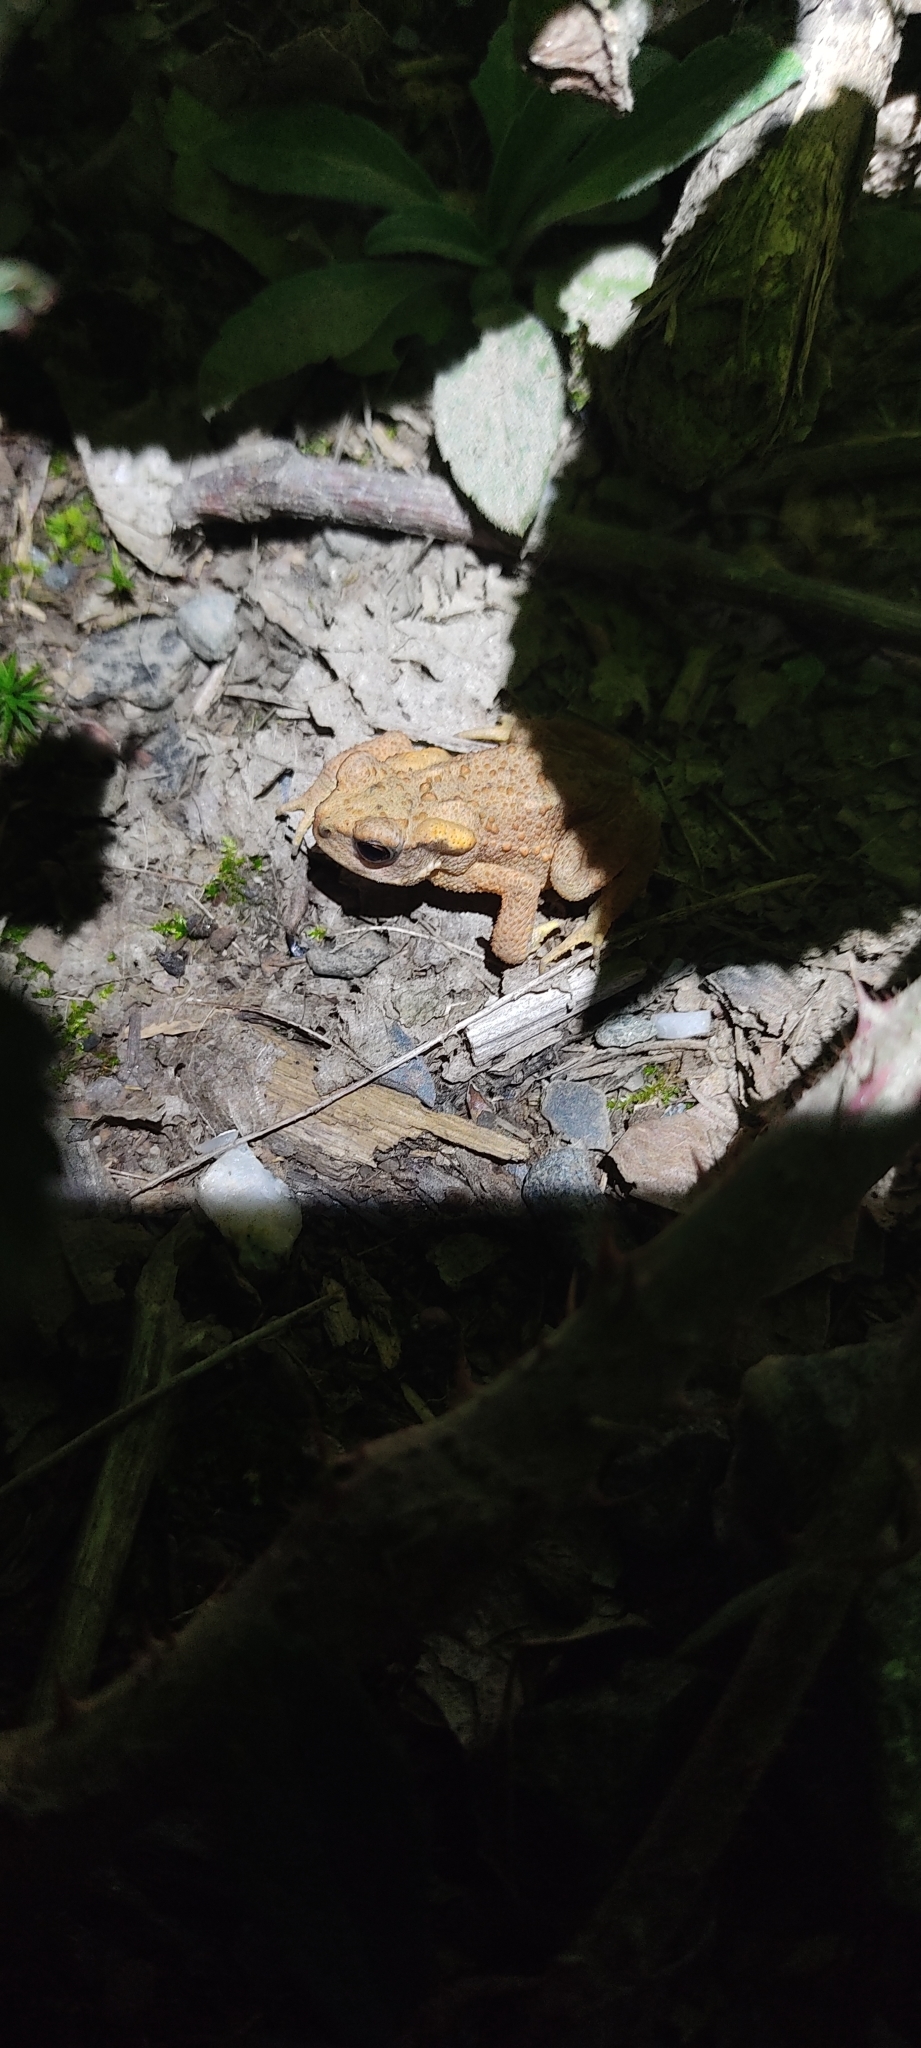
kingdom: Animalia
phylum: Chordata
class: Amphibia
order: Anura
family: Bufonidae
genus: Bufo
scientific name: Bufo spinosus
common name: Western common toad
